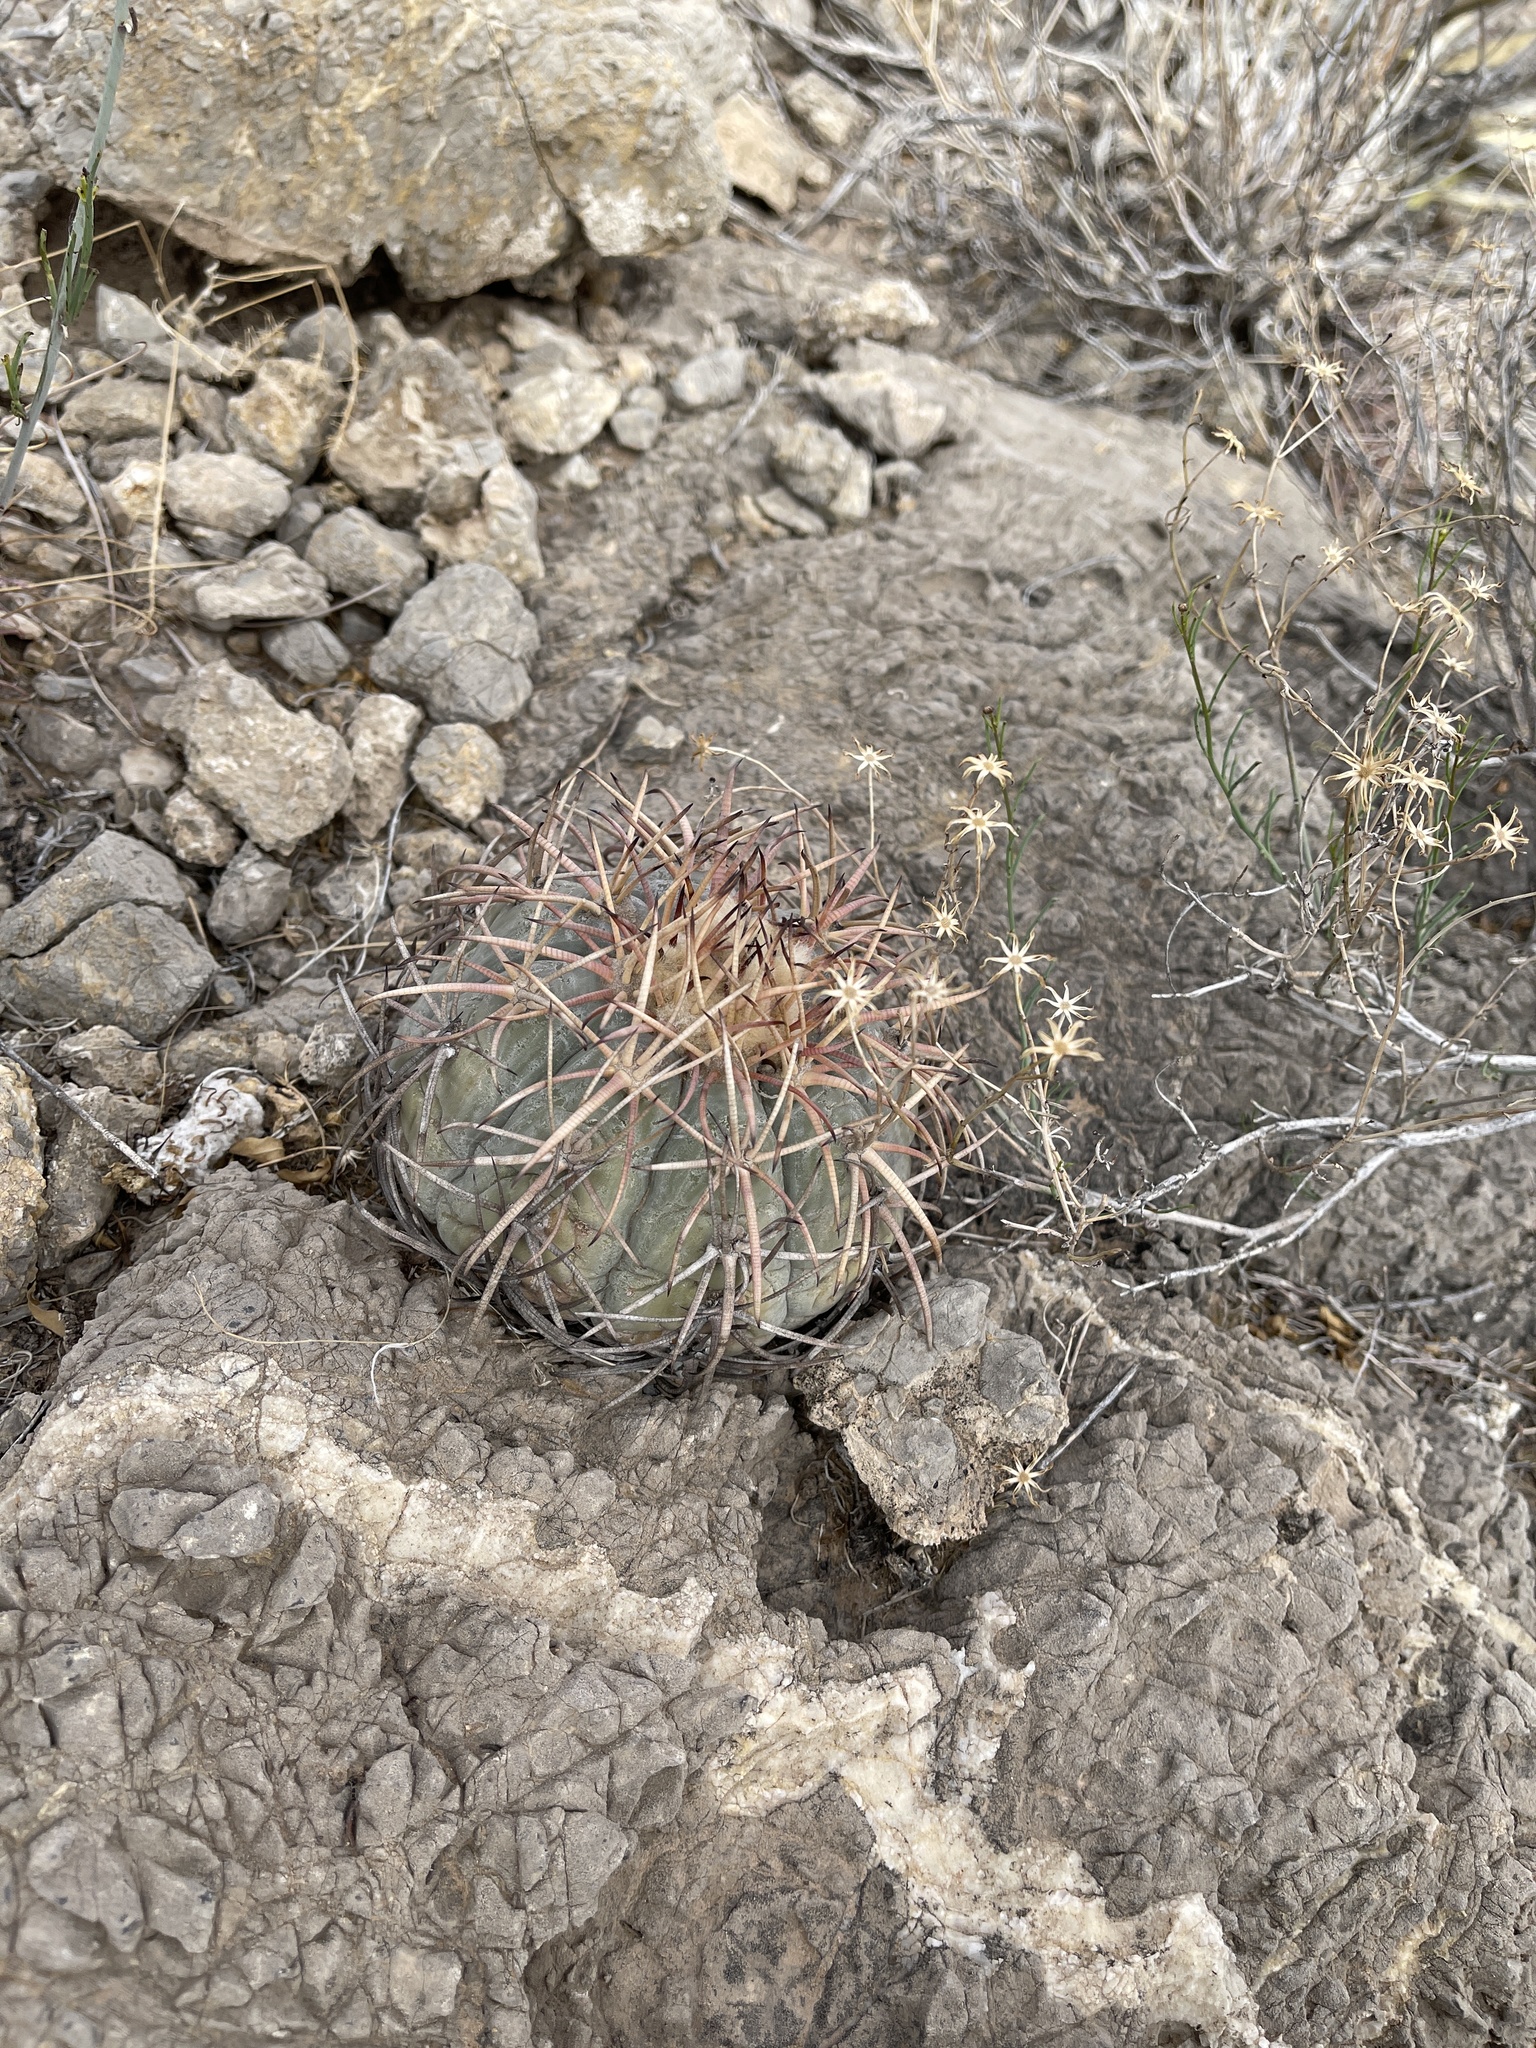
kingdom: Plantae
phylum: Tracheophyta
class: Magnoliopsida
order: Caryophyllales
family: Cactaceae
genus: Echinocactus
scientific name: Echinocactus horizonthalonius
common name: Devilshead
